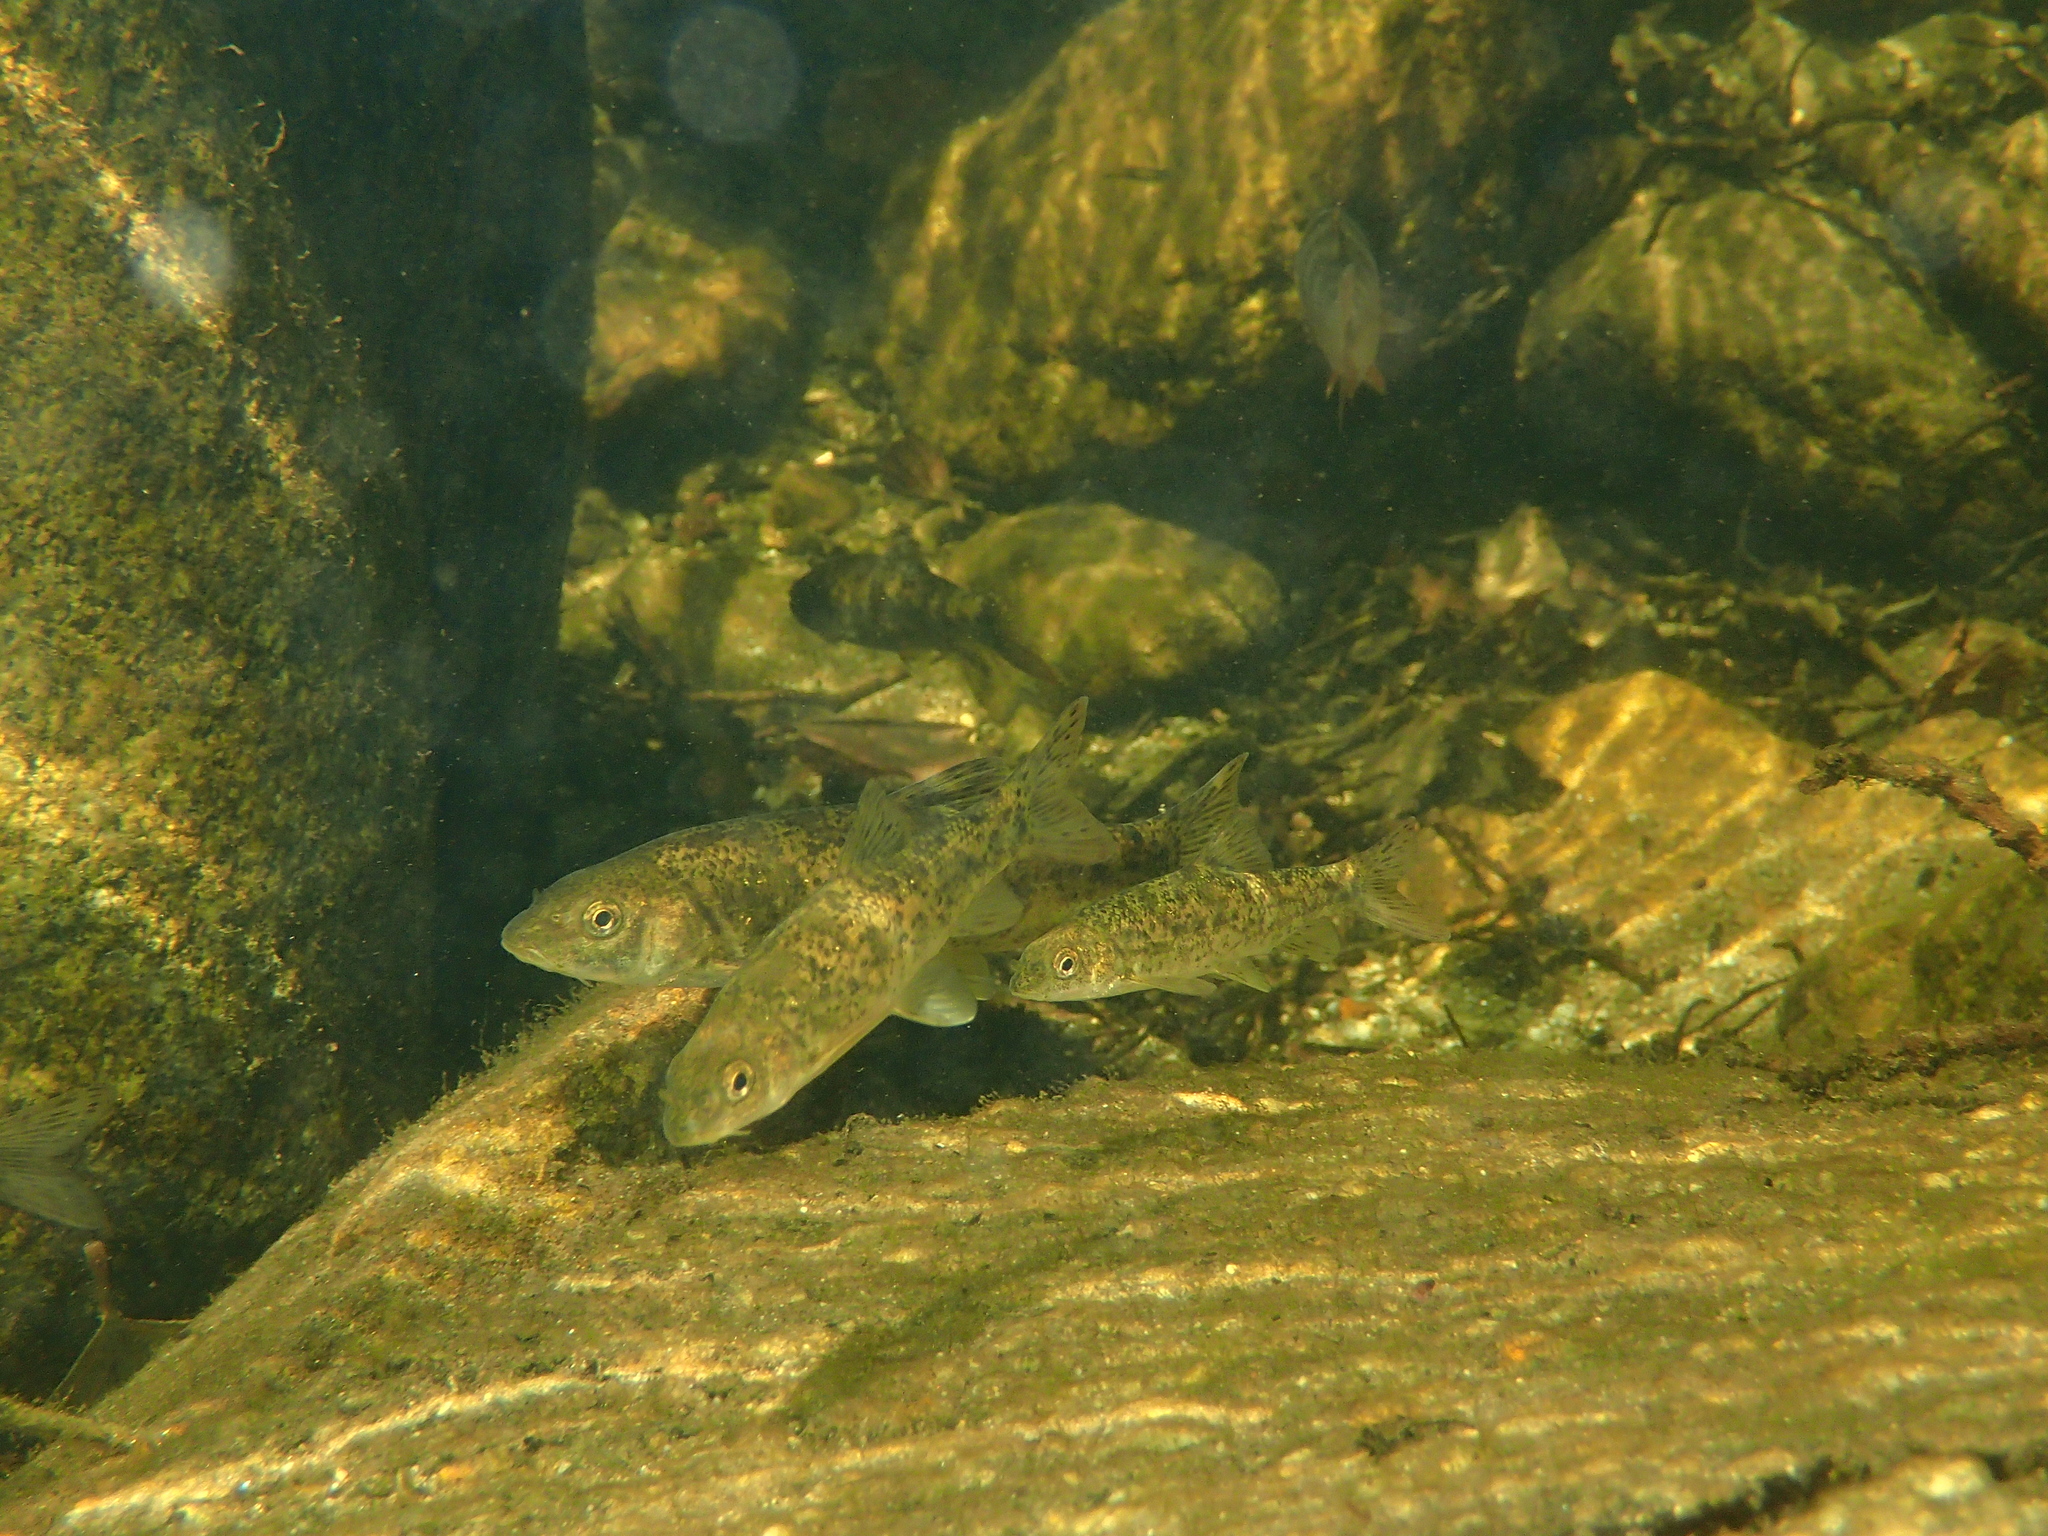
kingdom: Animalia
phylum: Chordata
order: Cypriniformes
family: Cyprinidae
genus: Barbus
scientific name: Barbus meridionalis
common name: Mediterranean barbel
